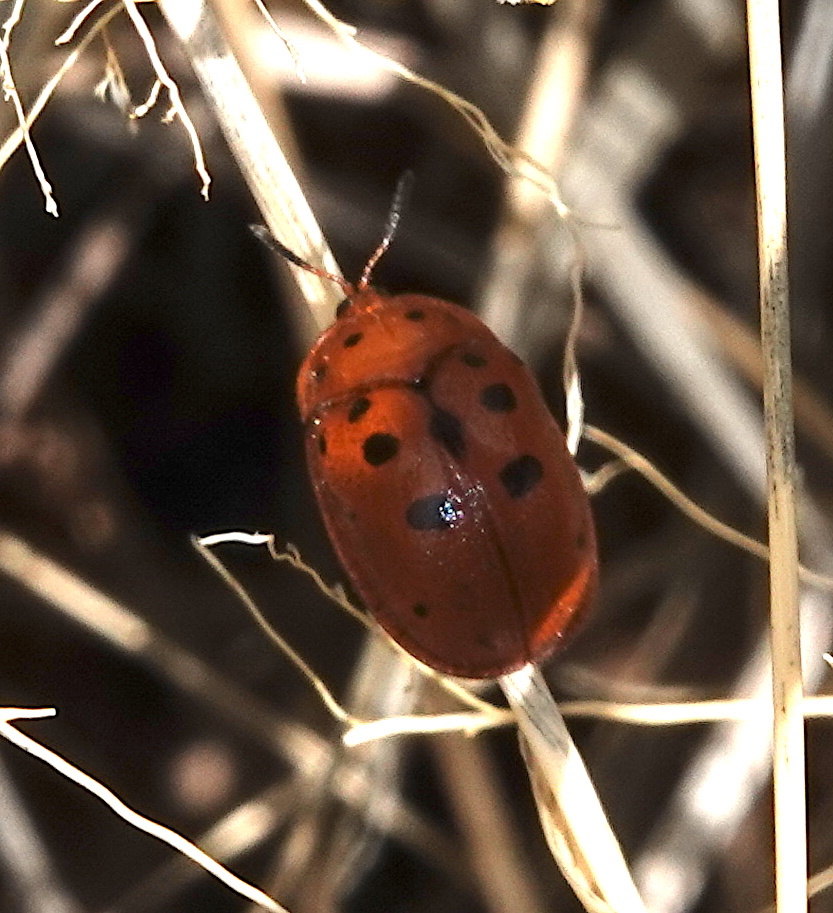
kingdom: Animalia
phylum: Arthropoda
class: Insecta
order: Coleoptera
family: Chrysomelidae
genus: Chelymorpha
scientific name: Chelymorpha phytophagica
